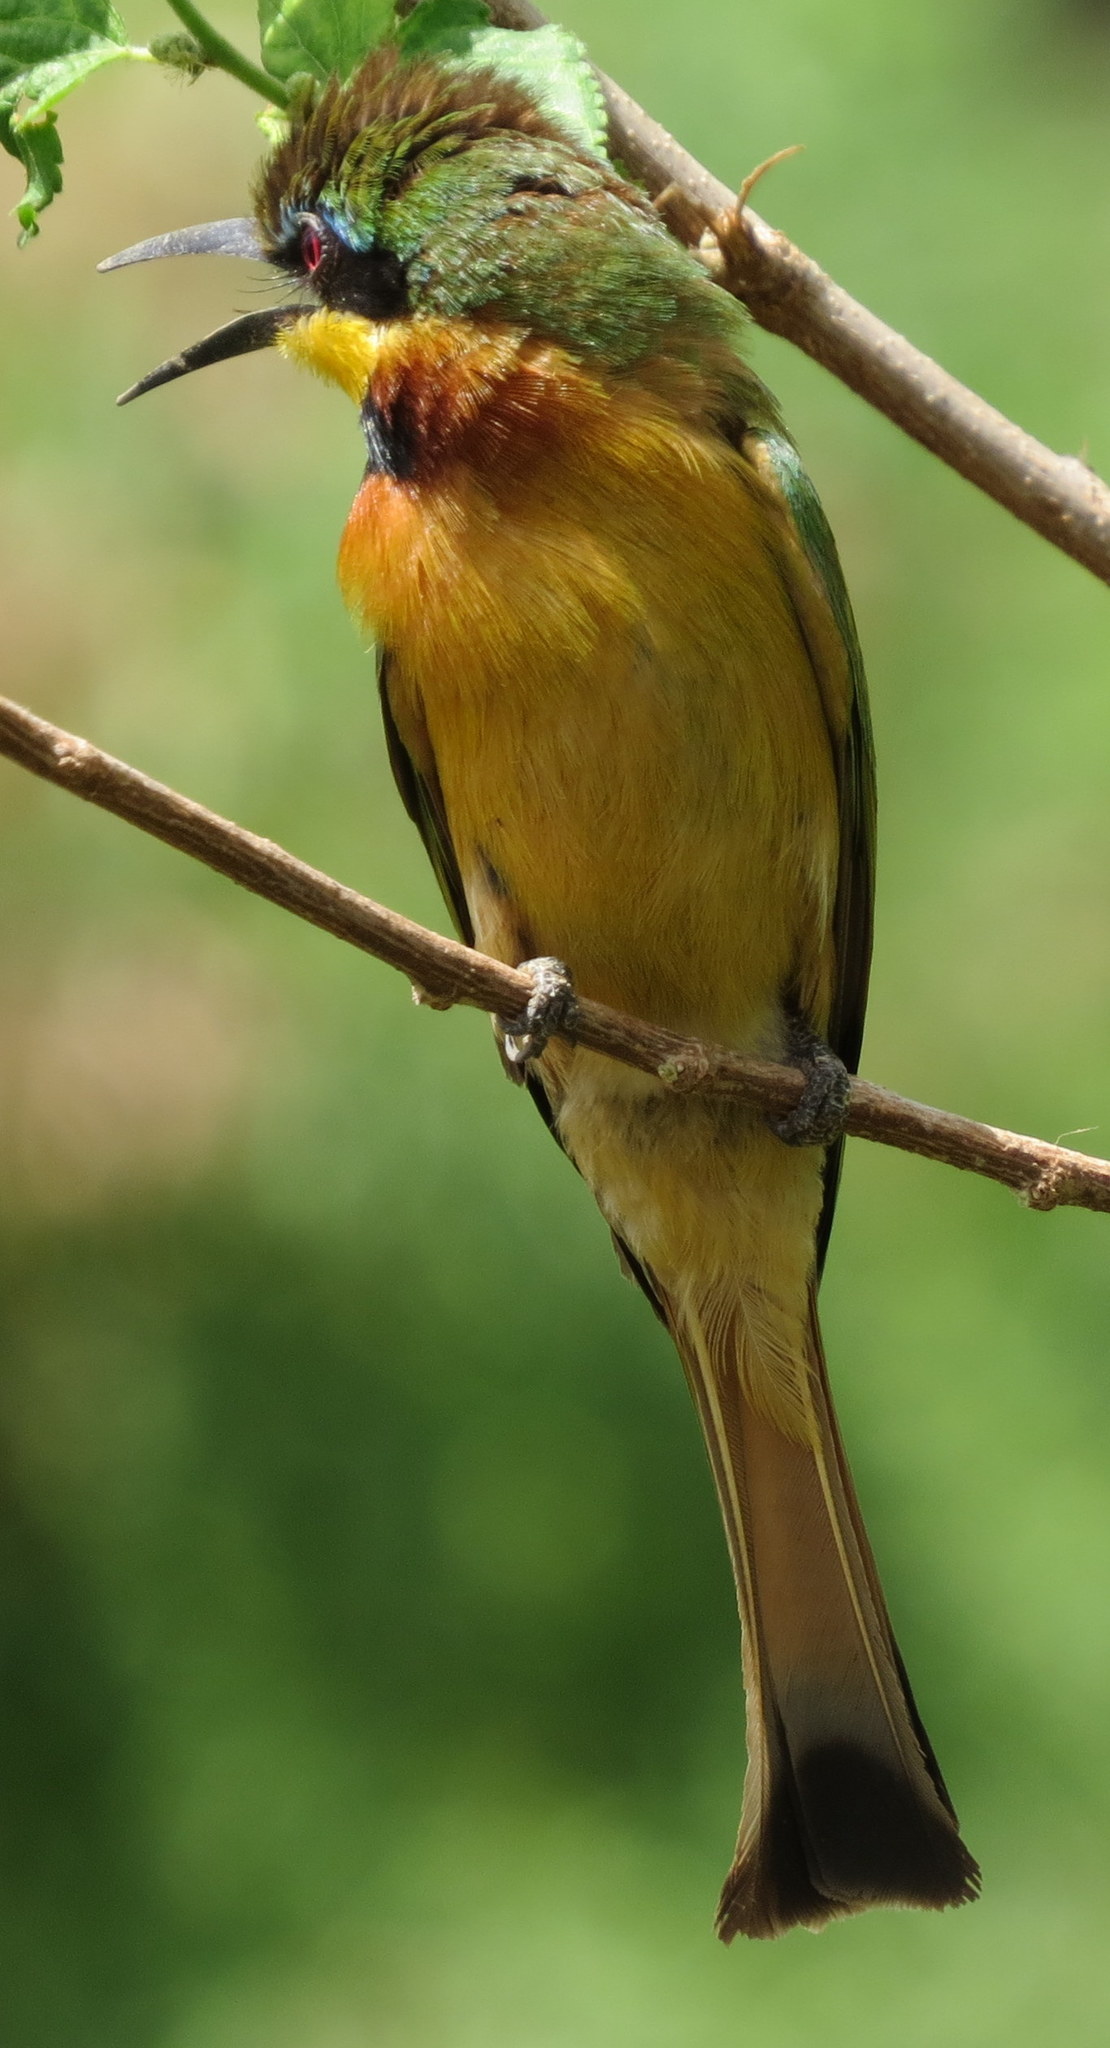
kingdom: Animalia
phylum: Chordata
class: Aves
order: Coraciiformes
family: Meropidae
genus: Merops
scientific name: Merops pusillus
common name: Little bee-eater
